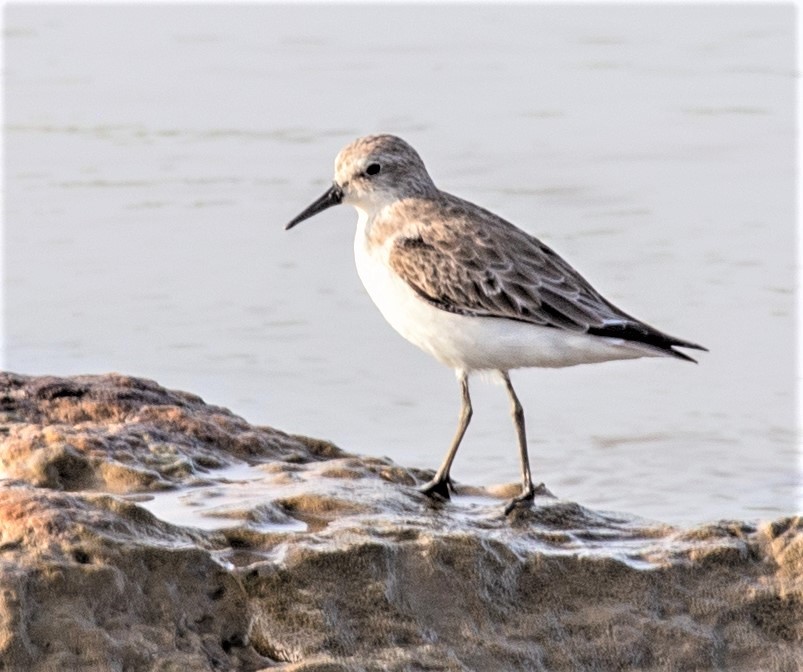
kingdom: Animalia
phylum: Chordata
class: Aves
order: Charadriiformes
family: Scolopacidae
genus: Calidris
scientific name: Calidris pusilla
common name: Semipalmated sandpiper
